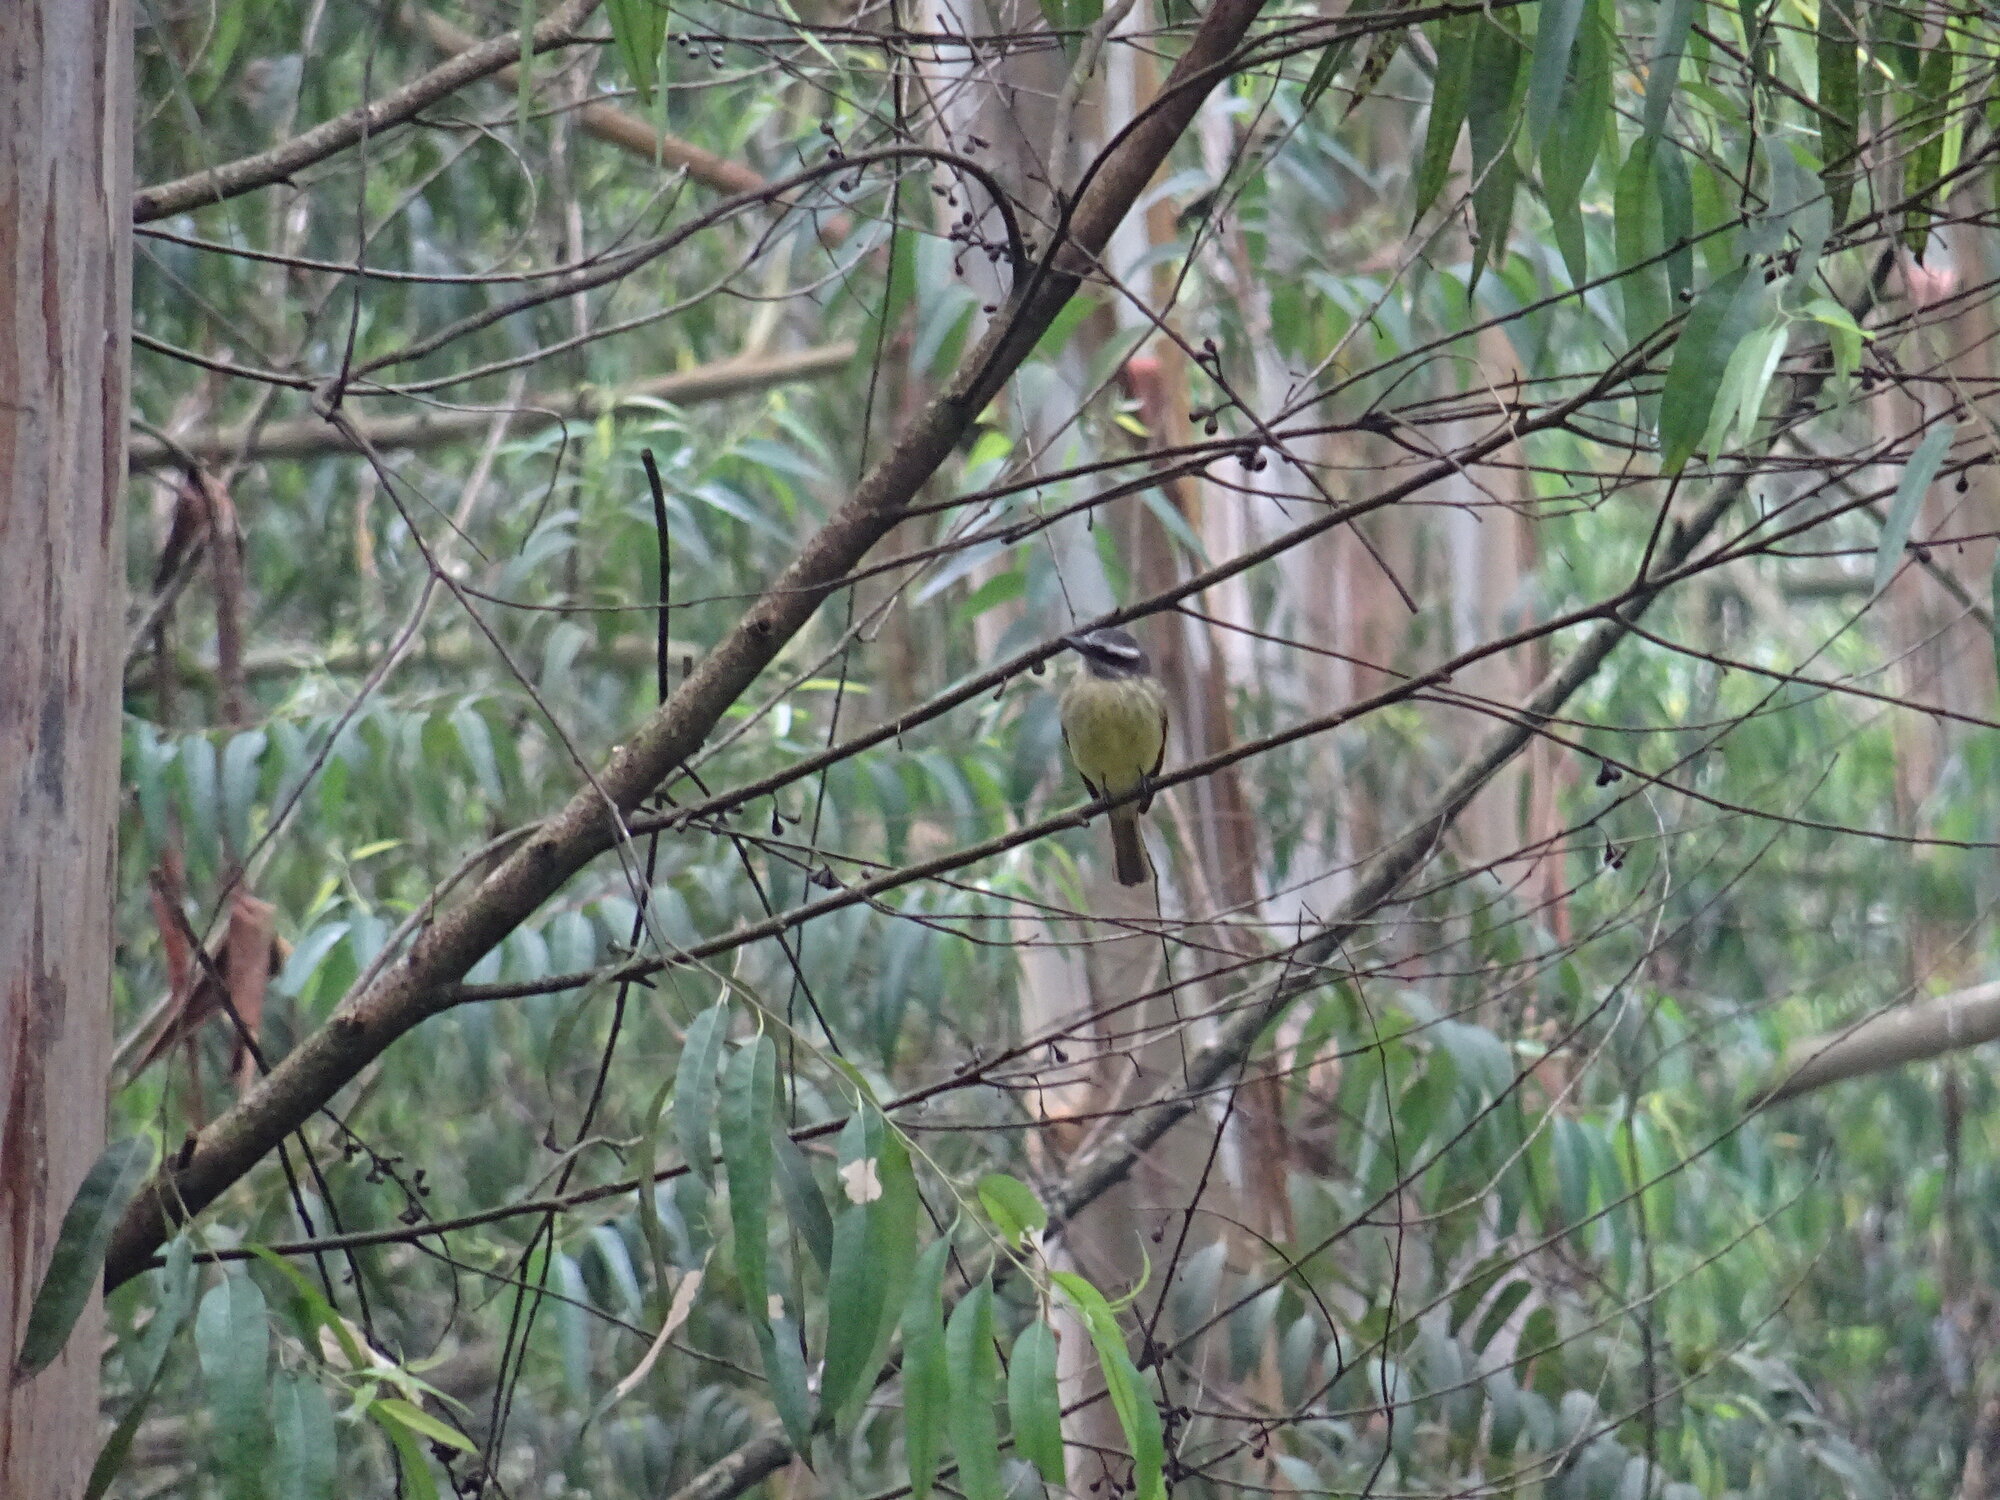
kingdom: Animalia
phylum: Chordata
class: Aves
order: Passeriformes
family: Tyrannidae
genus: Myiodynastes
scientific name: Myiodynastes hemichrysus
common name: Golden-bellied flycatcher
